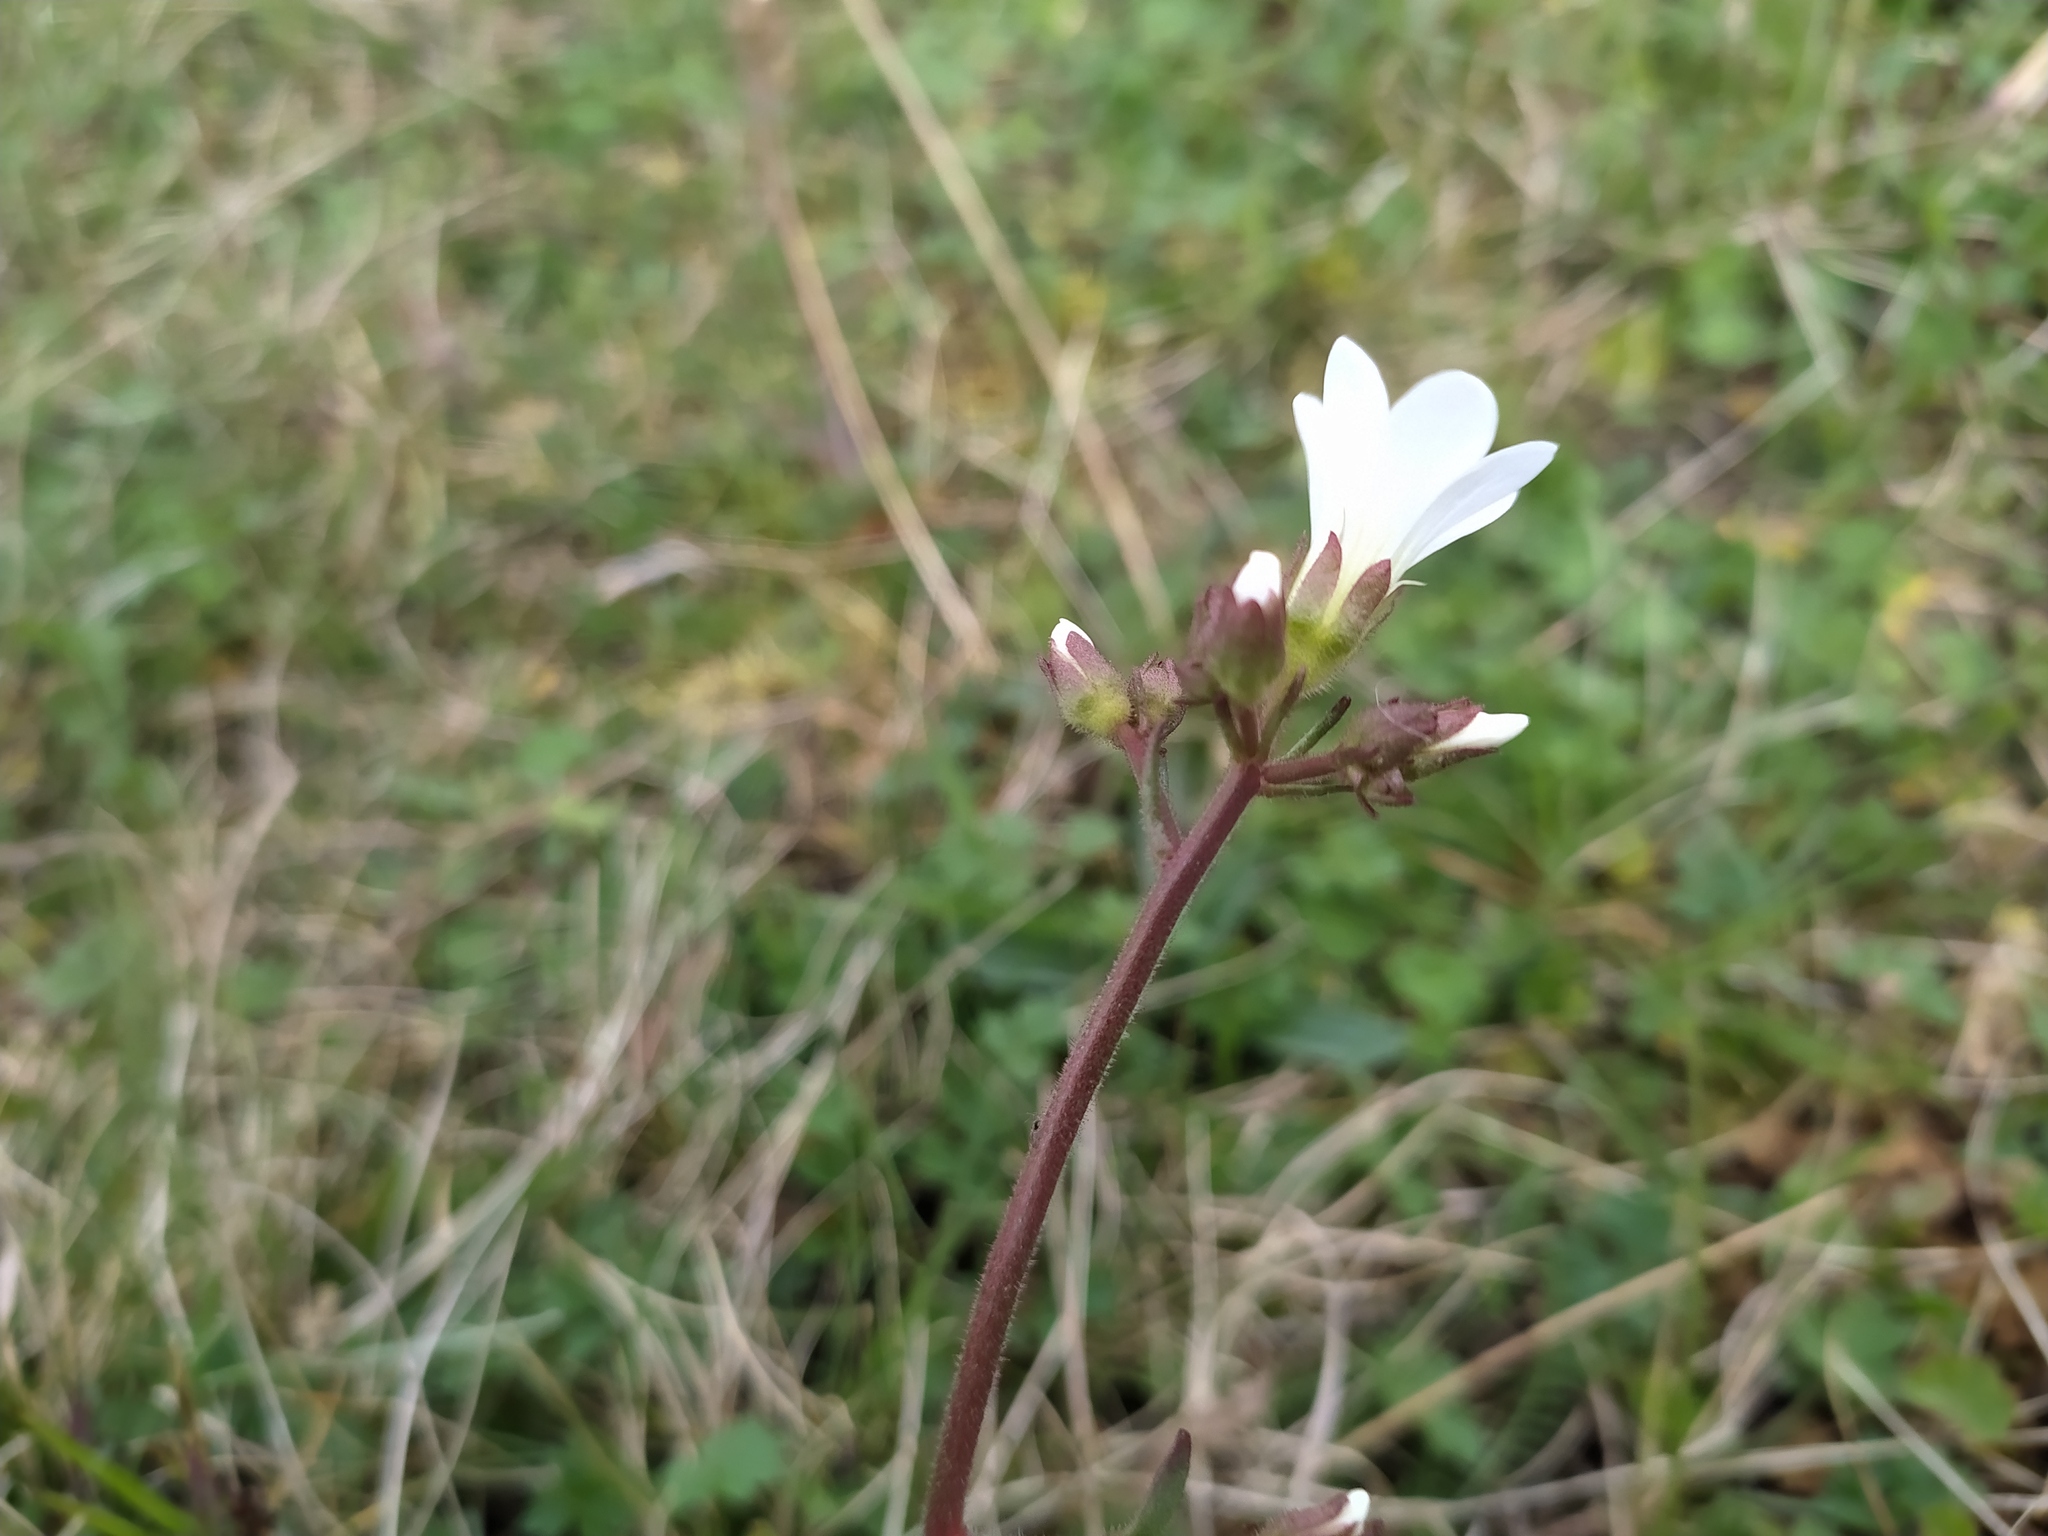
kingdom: Plantae
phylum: Tracheophyta
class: Magnoliopsida
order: Saxifragales
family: Saxifragaceae
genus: Saxifraga
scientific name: Saxifraga granulata
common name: Meadow saxifrage
